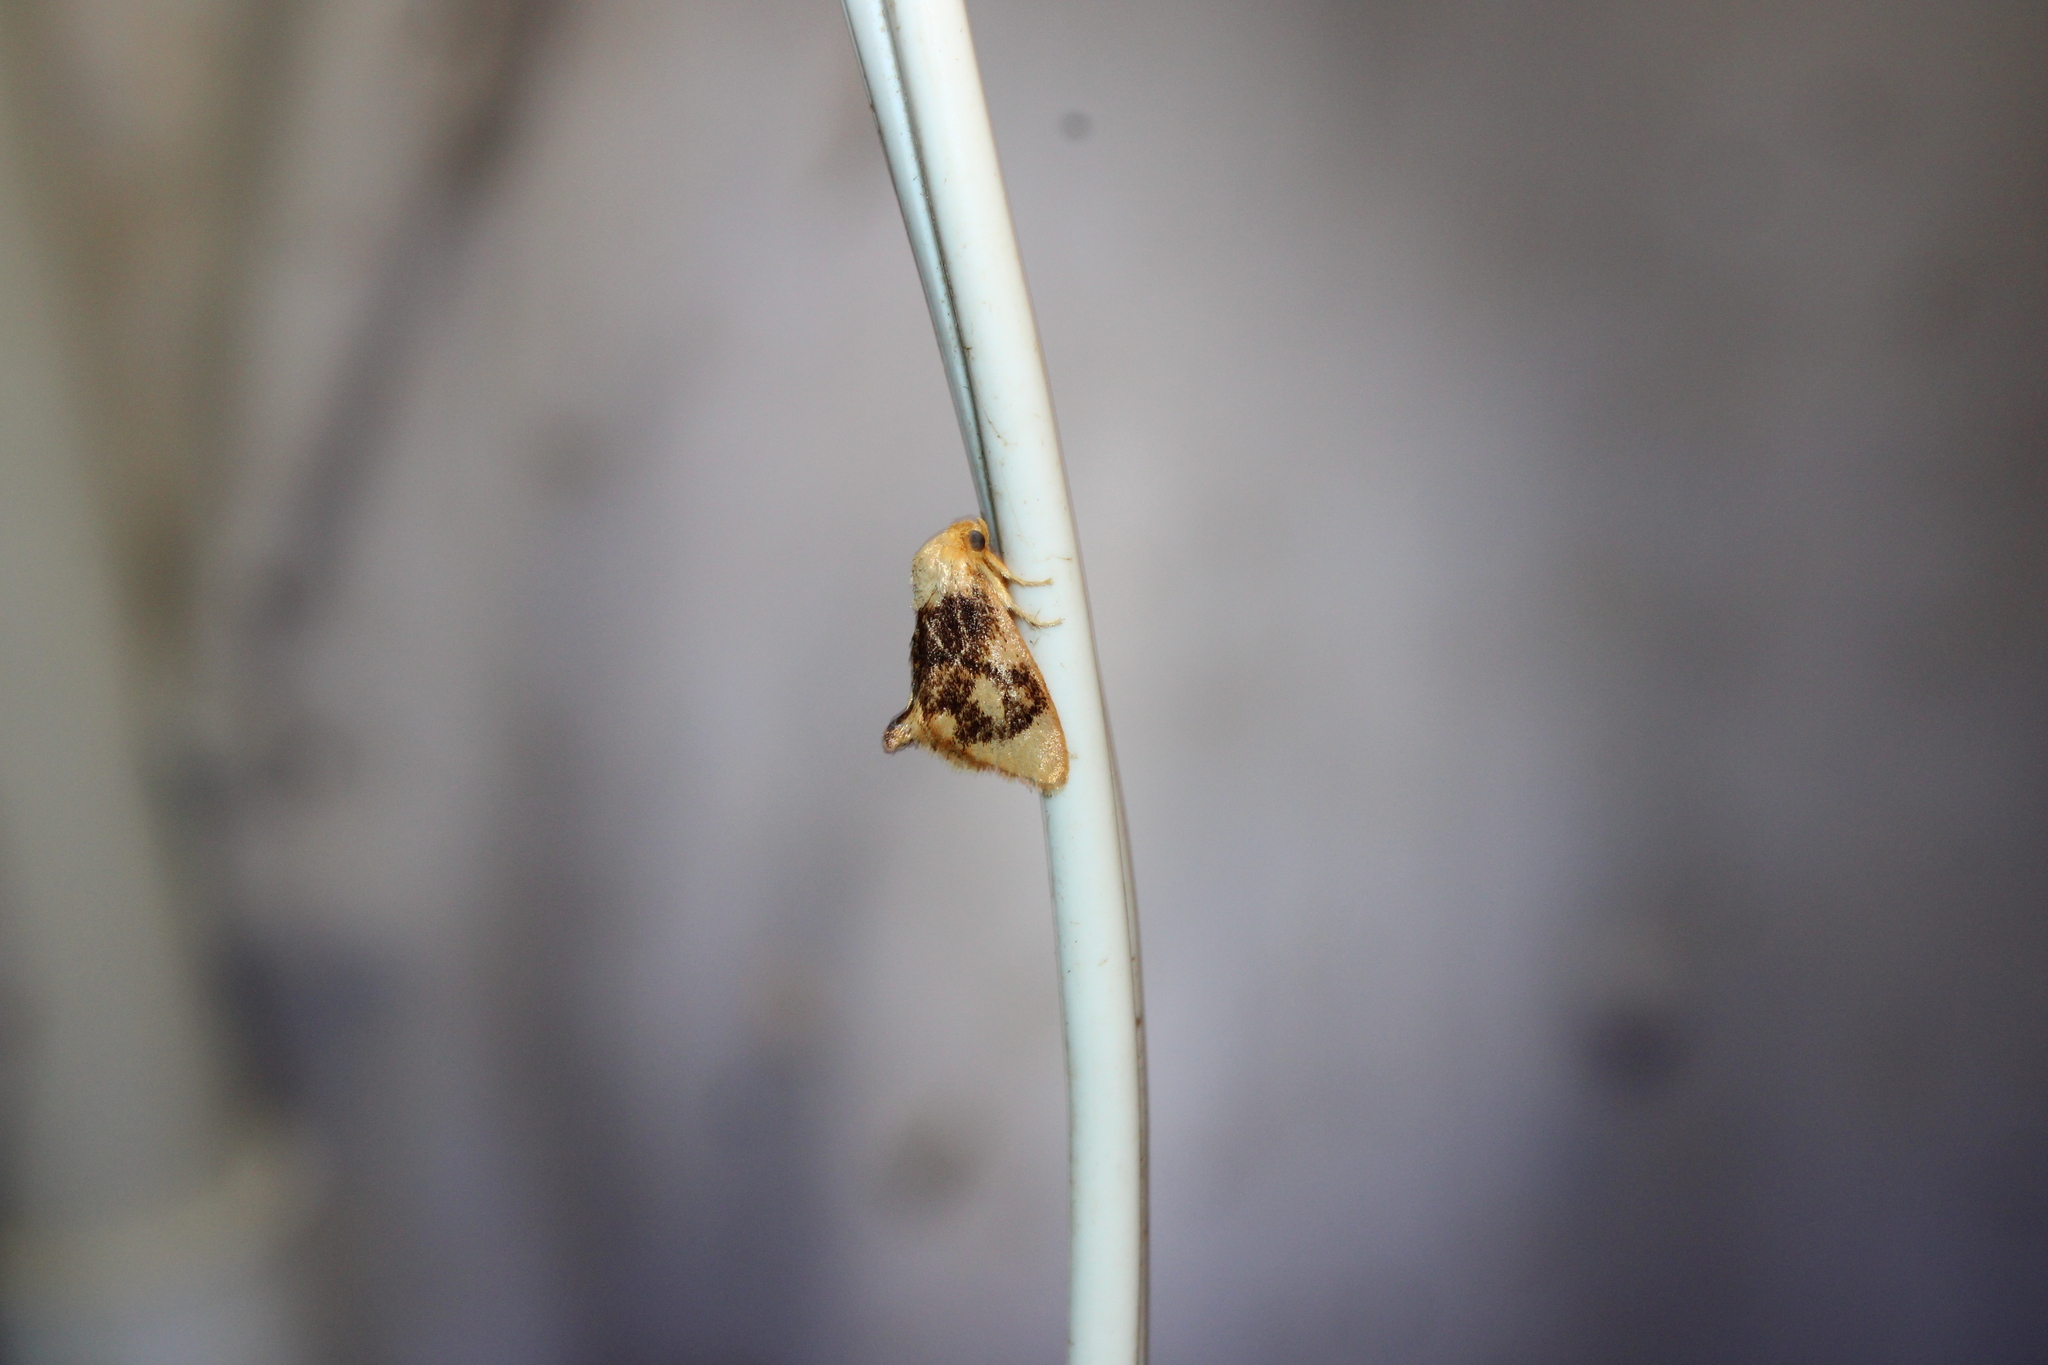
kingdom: Animalia
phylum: Arthropoda
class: Insecta
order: Lepidoptera
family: Limacodidae
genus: Tortricidia
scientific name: Tortricidia flexuosa
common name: Abbreviated button slug moth
